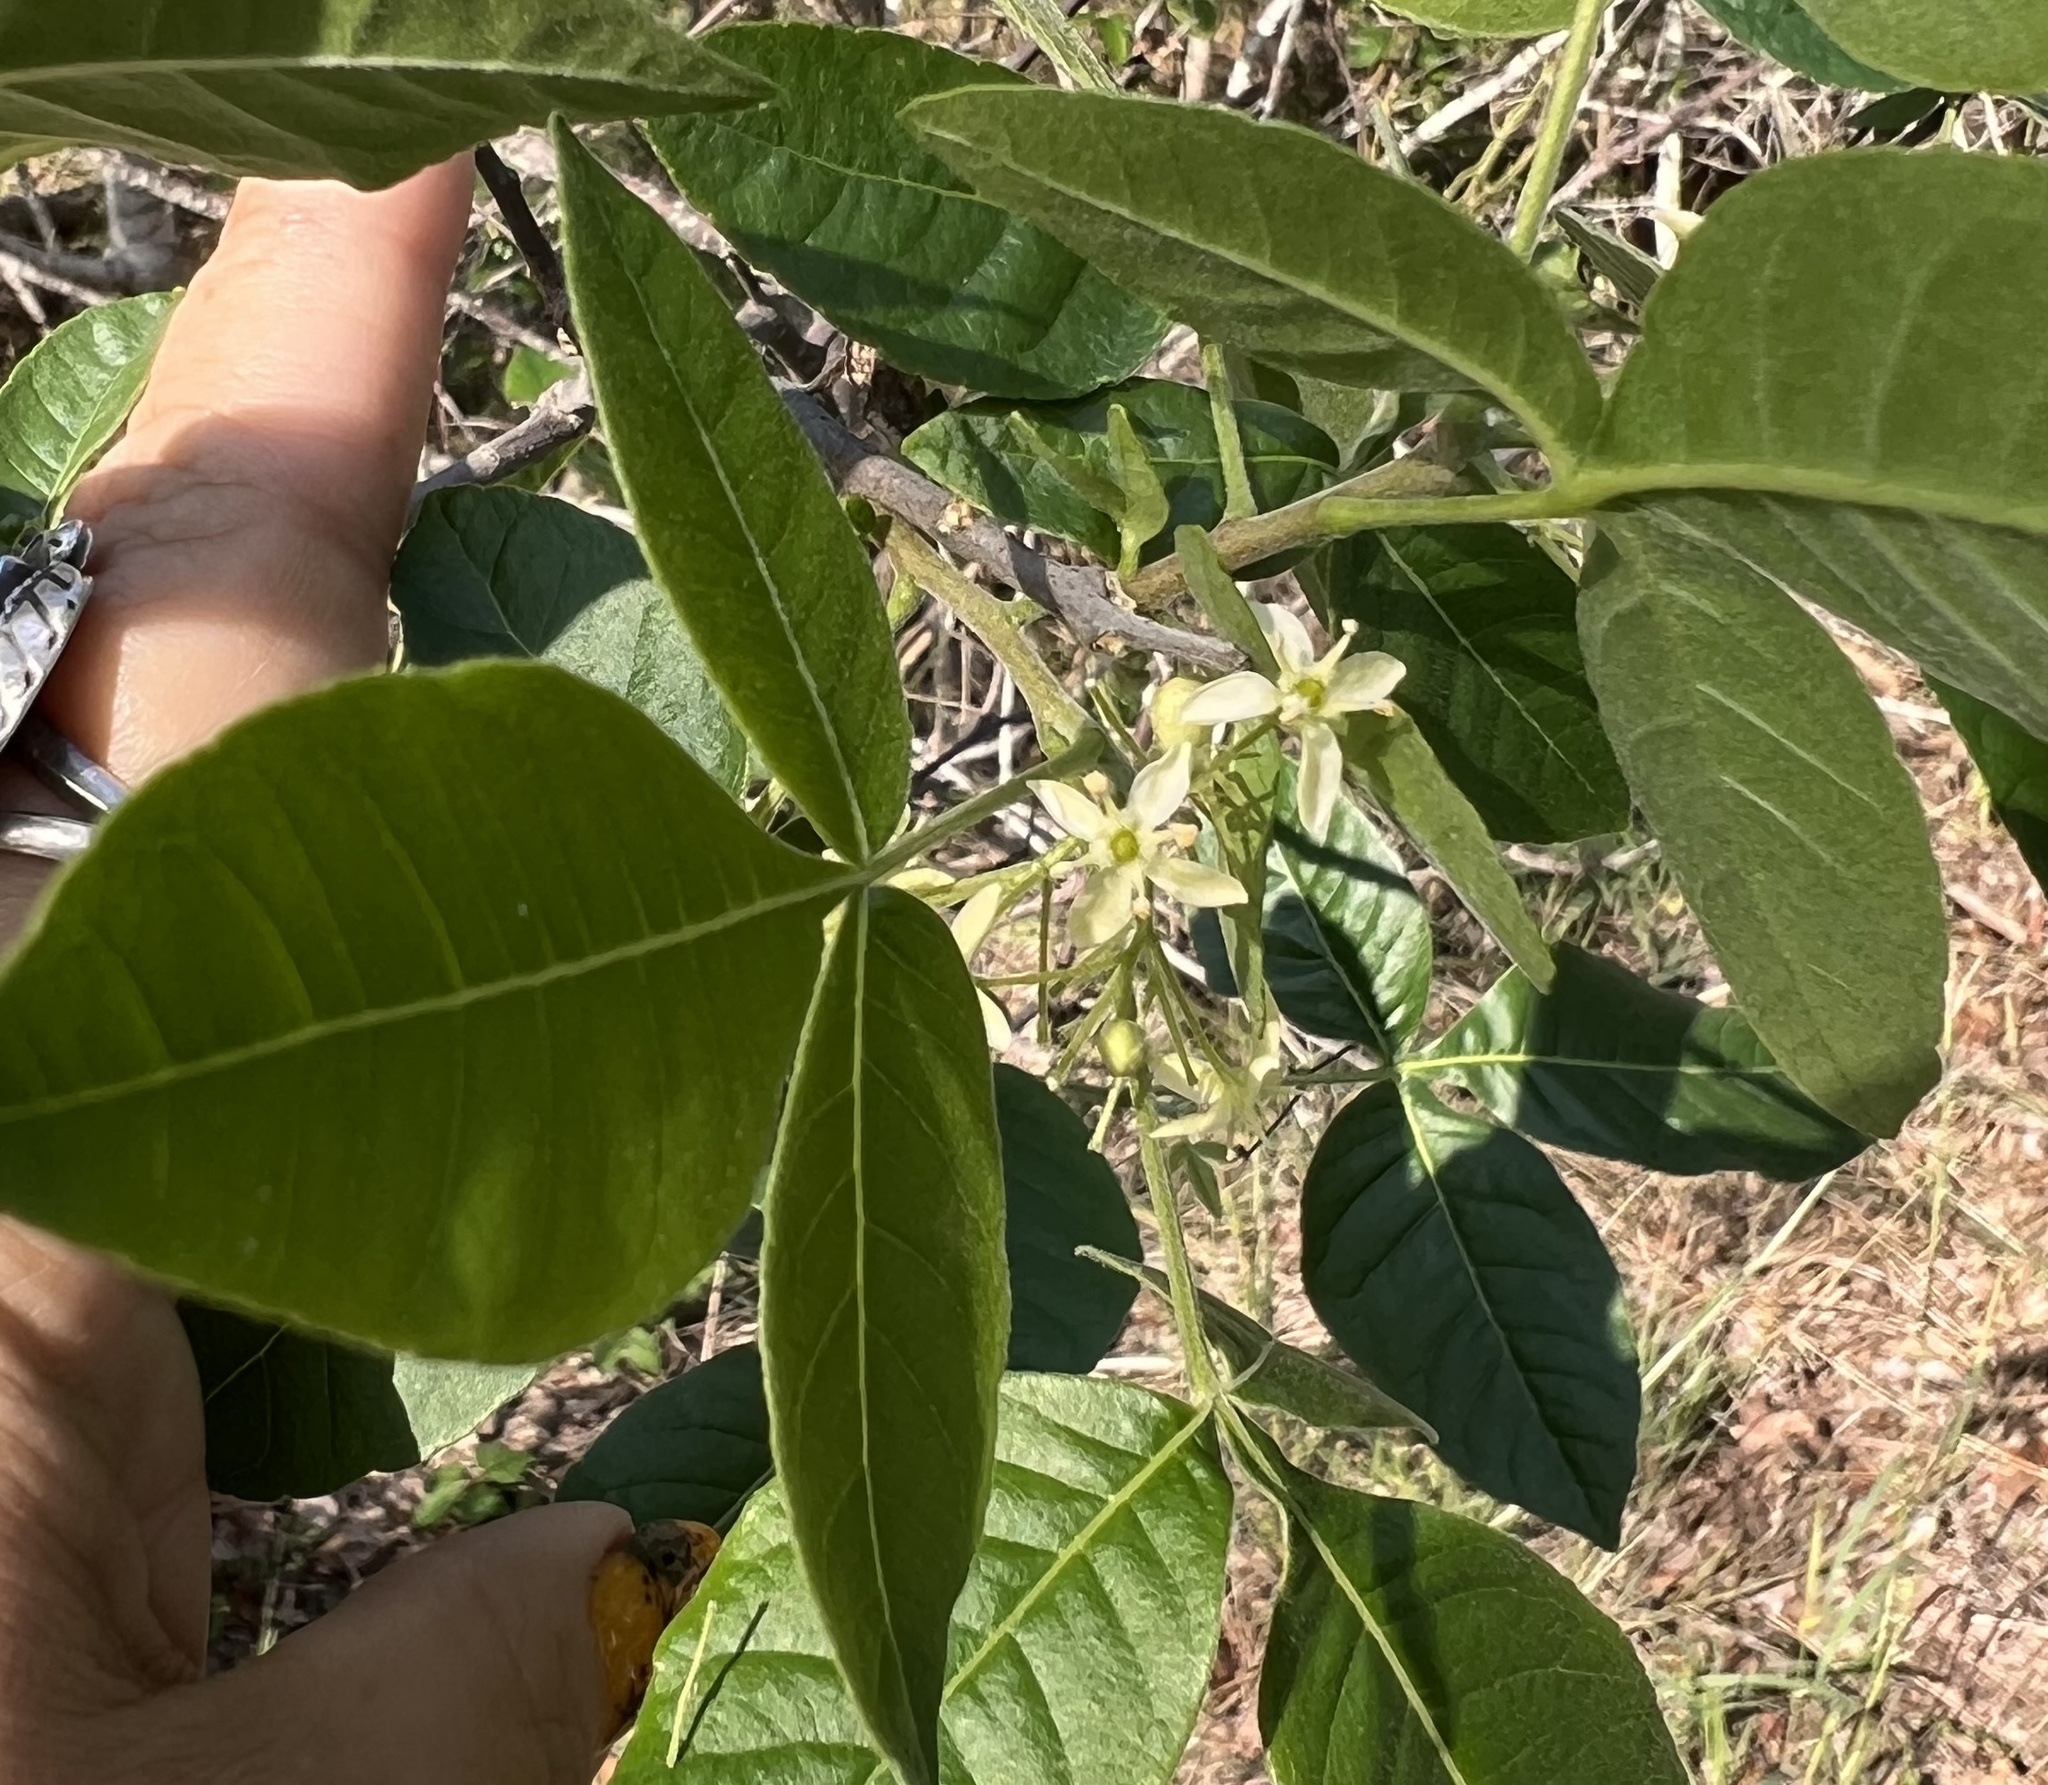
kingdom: Plantae
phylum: Tracheophyta
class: Magnoliopsida
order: Sapindales
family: Rutaceae
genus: Ptelea
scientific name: Ptelea trifoliata
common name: Common hop-tree
